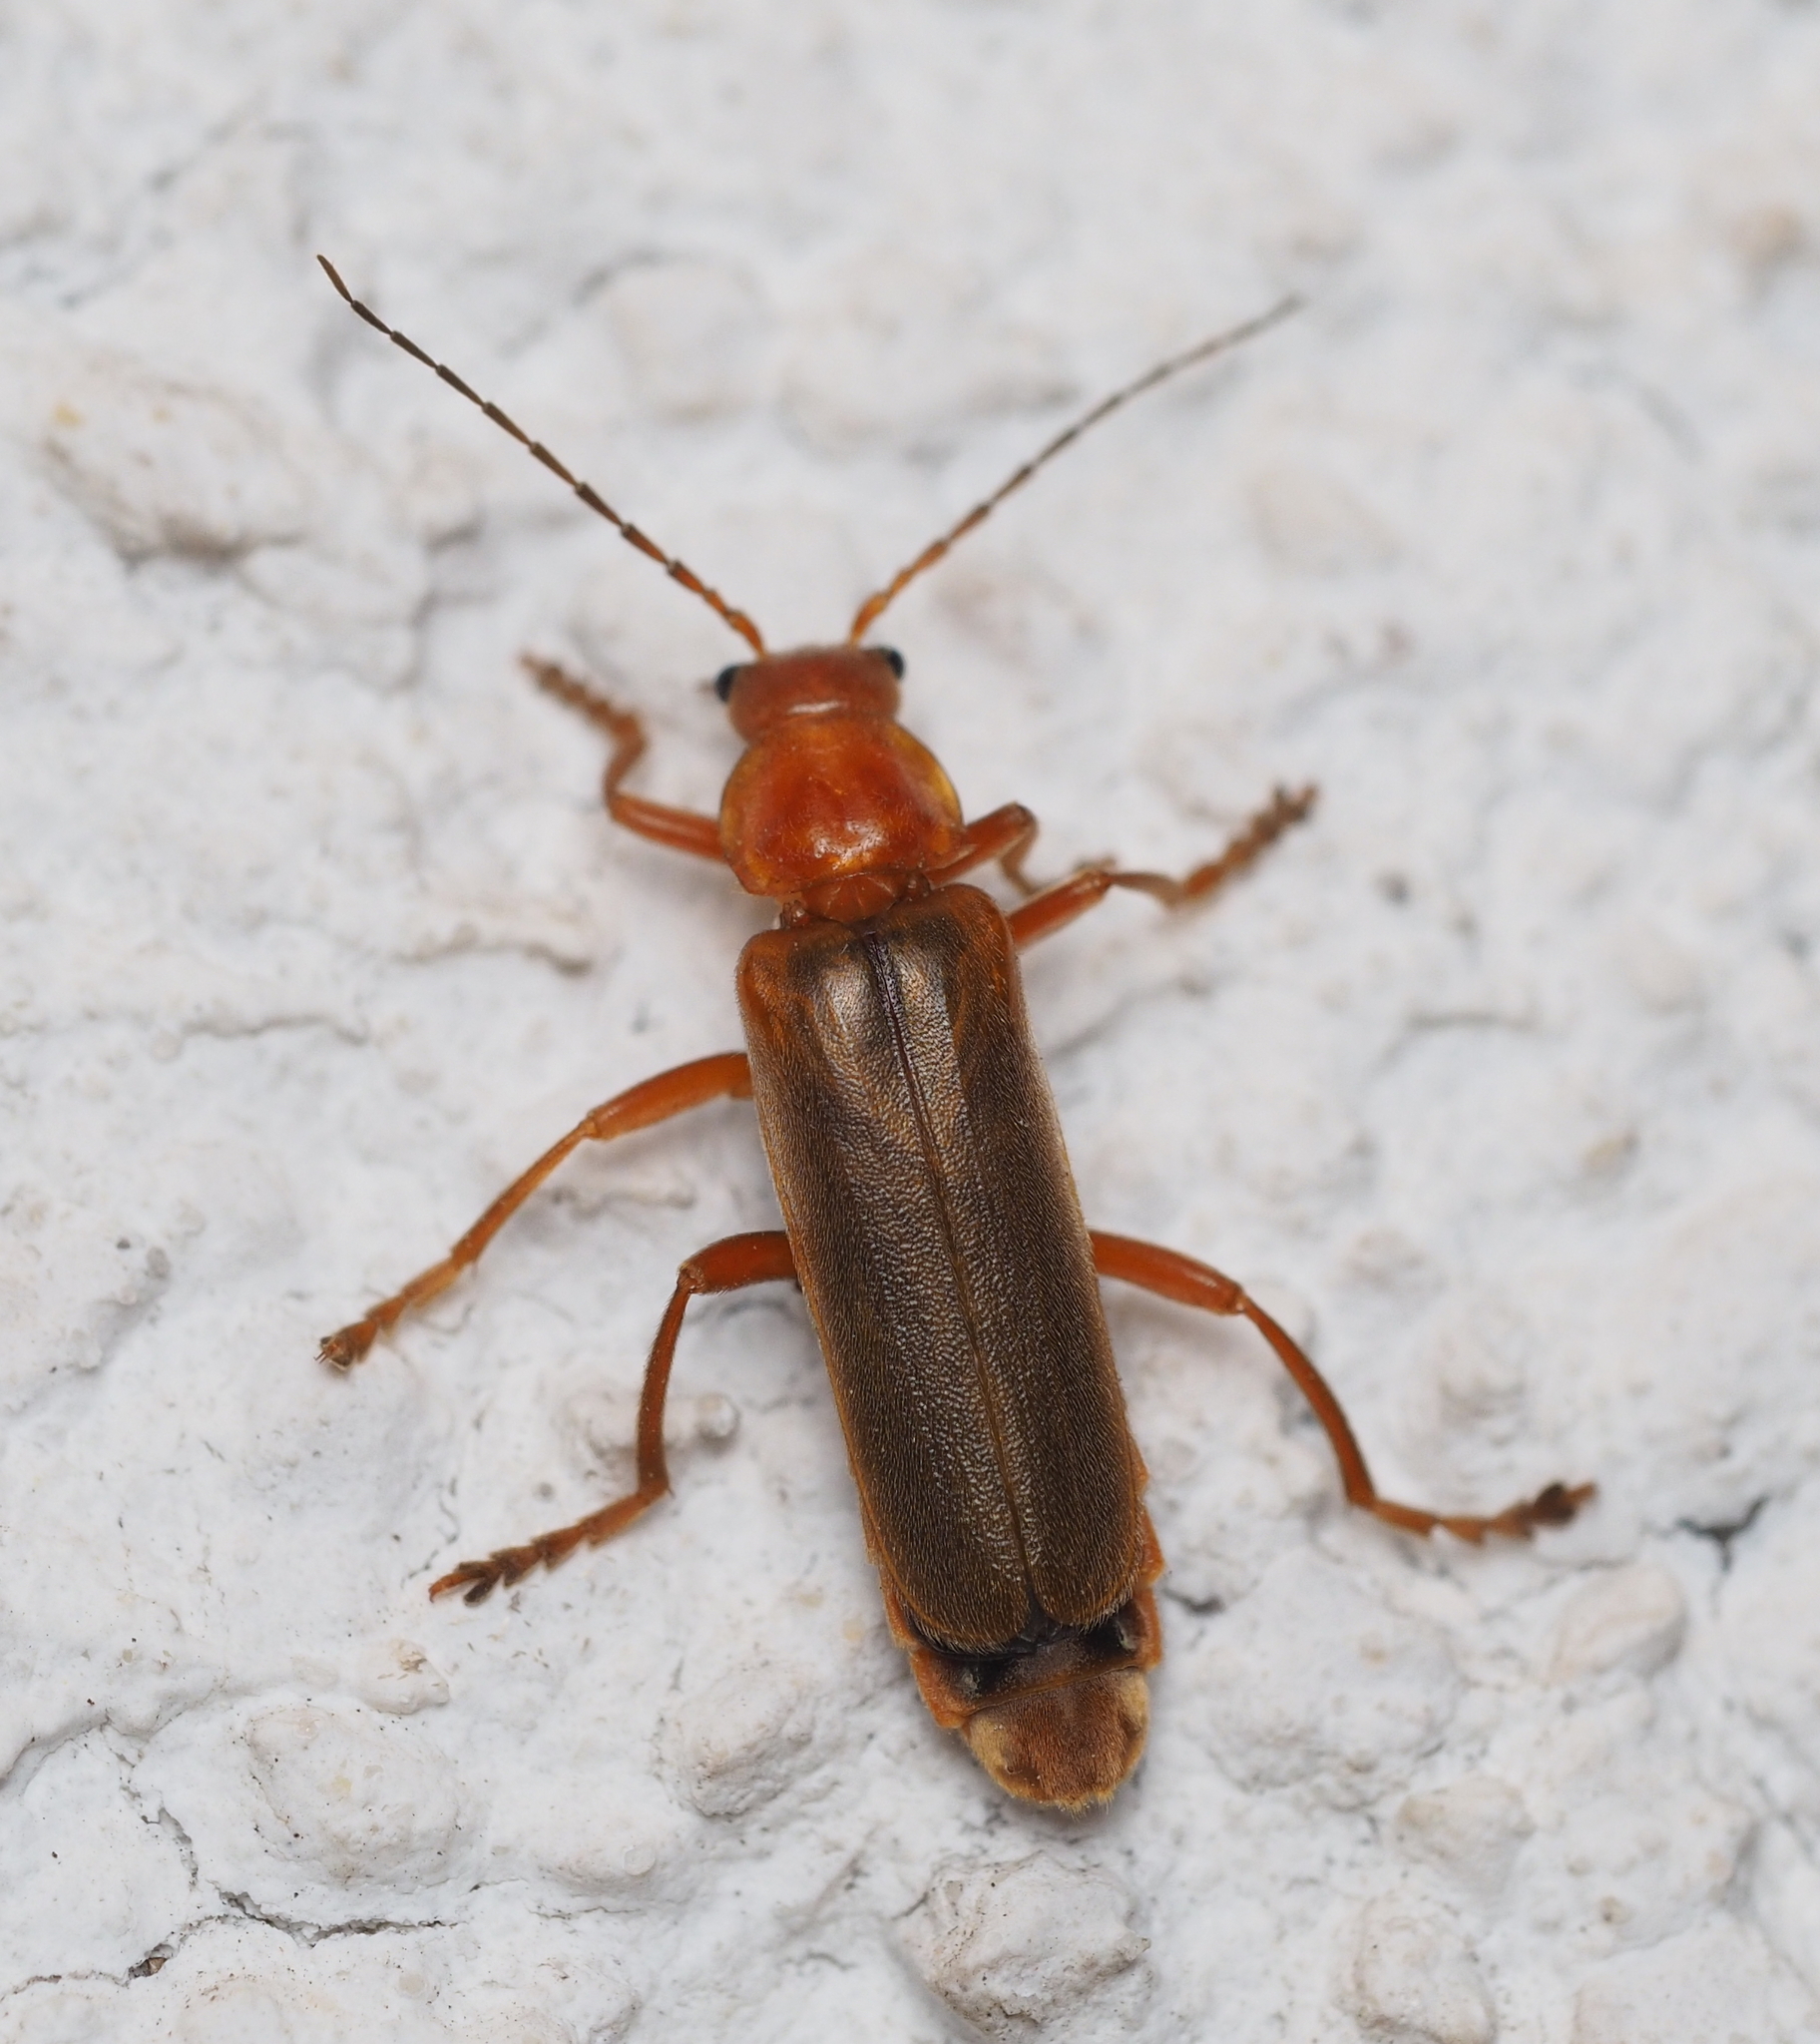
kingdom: Animalia
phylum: Arthropoda
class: Insecta
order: Coleoptera
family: Cantharidae
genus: Cantharis
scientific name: Cantharis rufa
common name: Red-spotted soldier beetle
